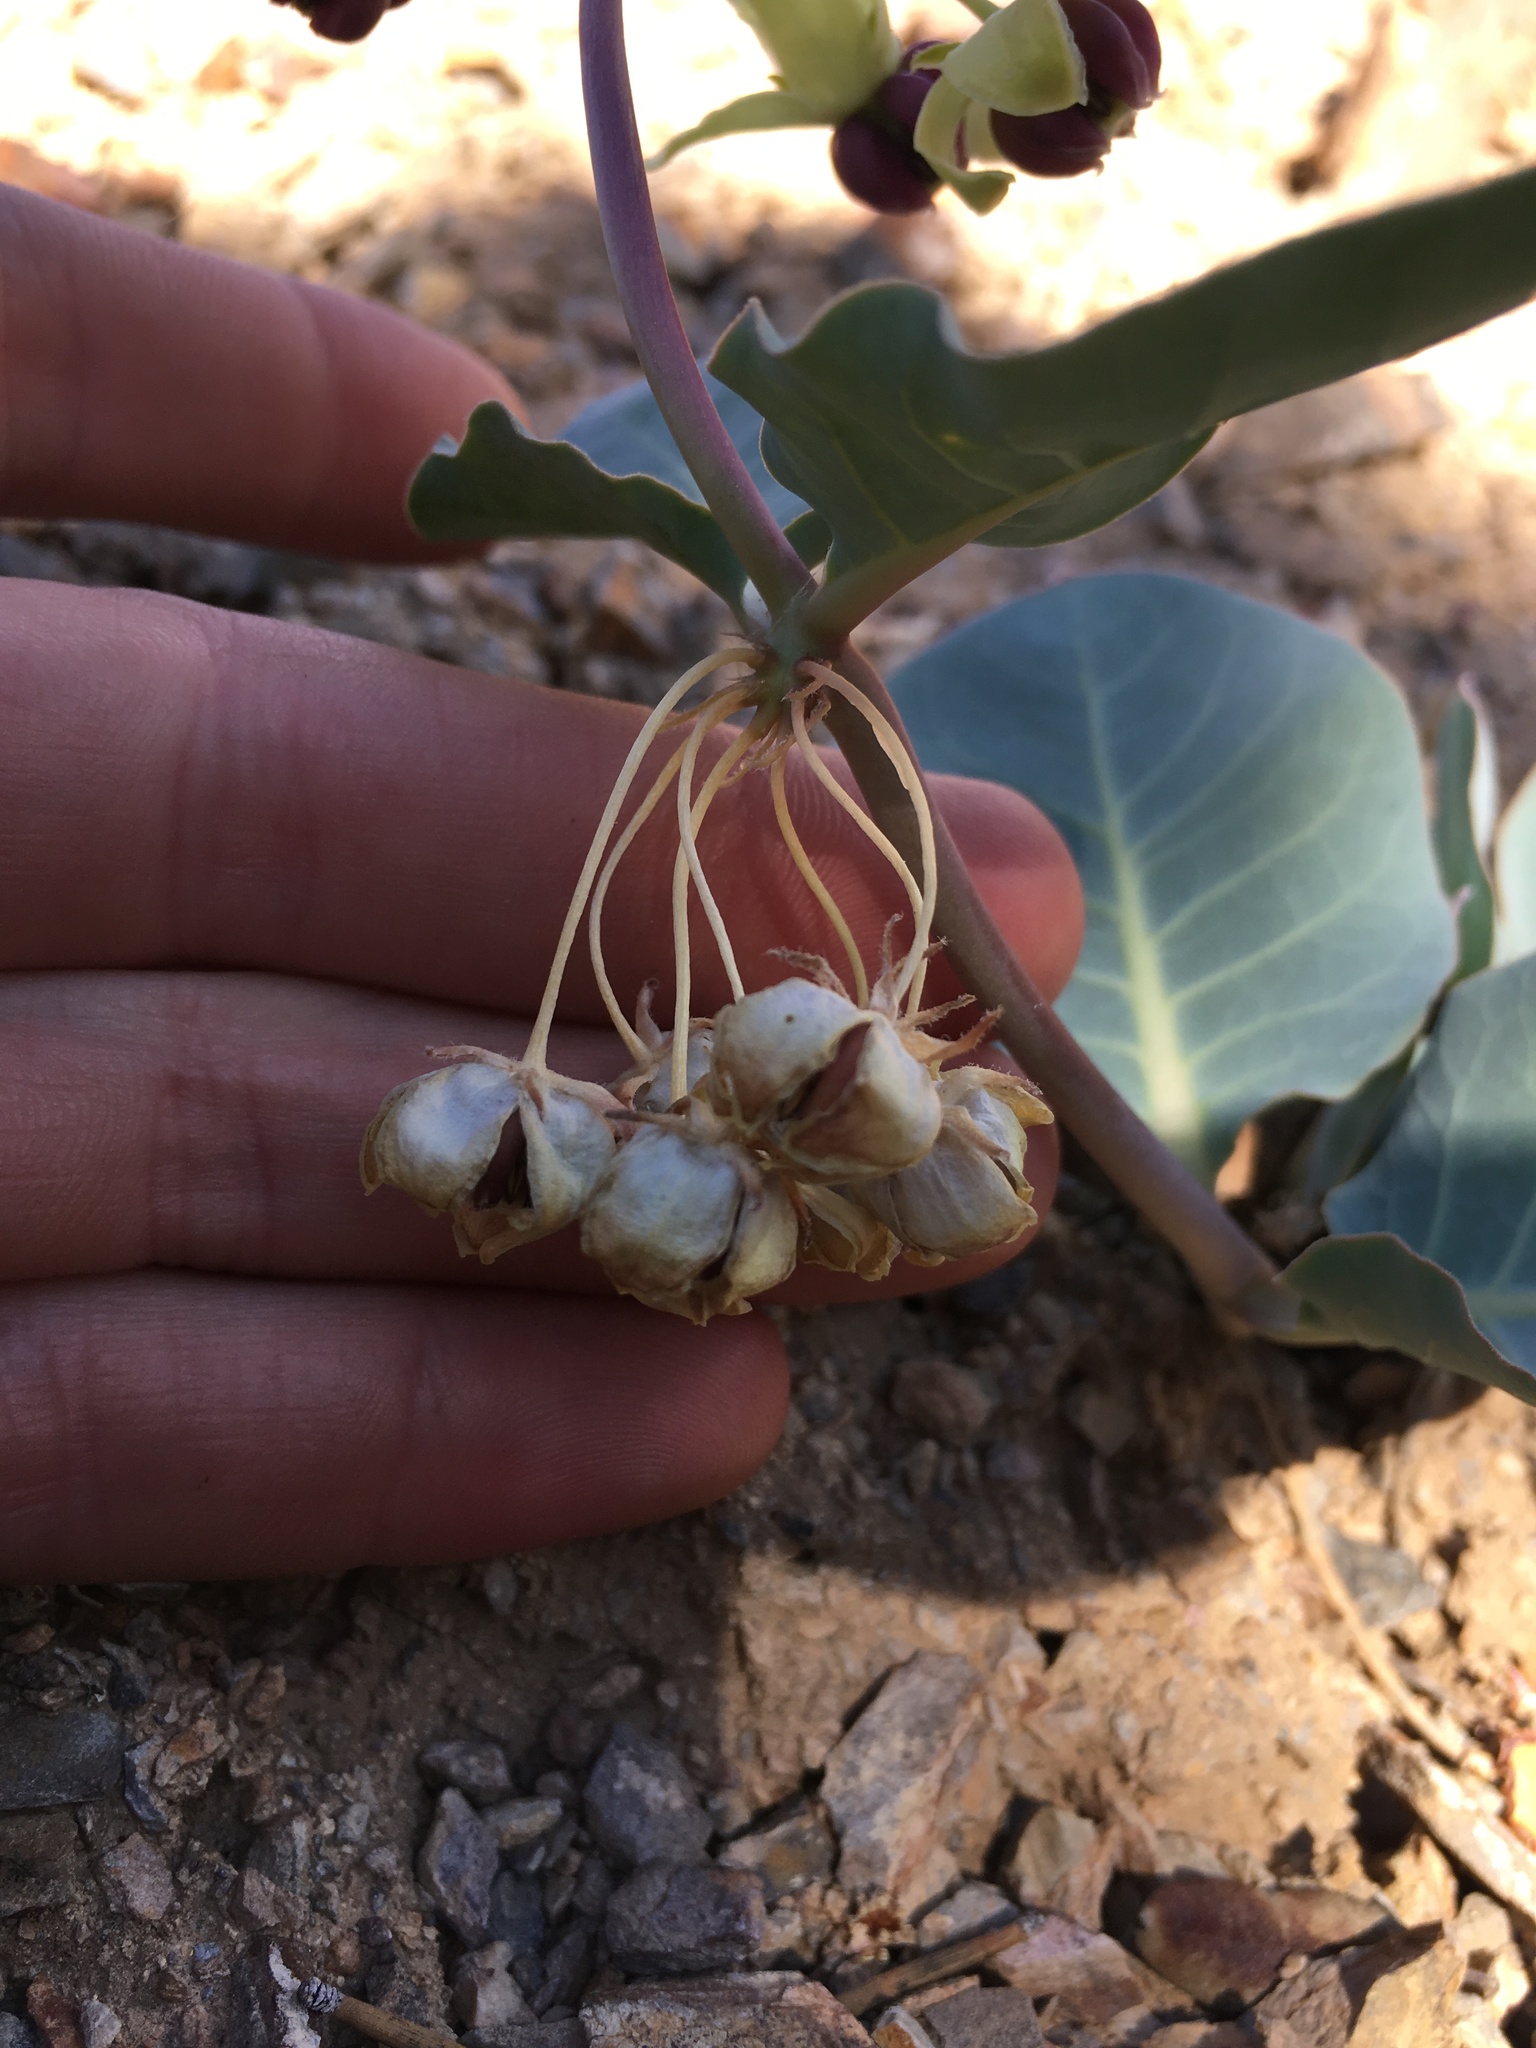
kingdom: Plantae
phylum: Tracheophyta
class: Magnoliopsida
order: Gentianales
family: Apocynaceae
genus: Asclepias
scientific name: Asclepias cryptoceras
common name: Humboldt mountains milkweed
